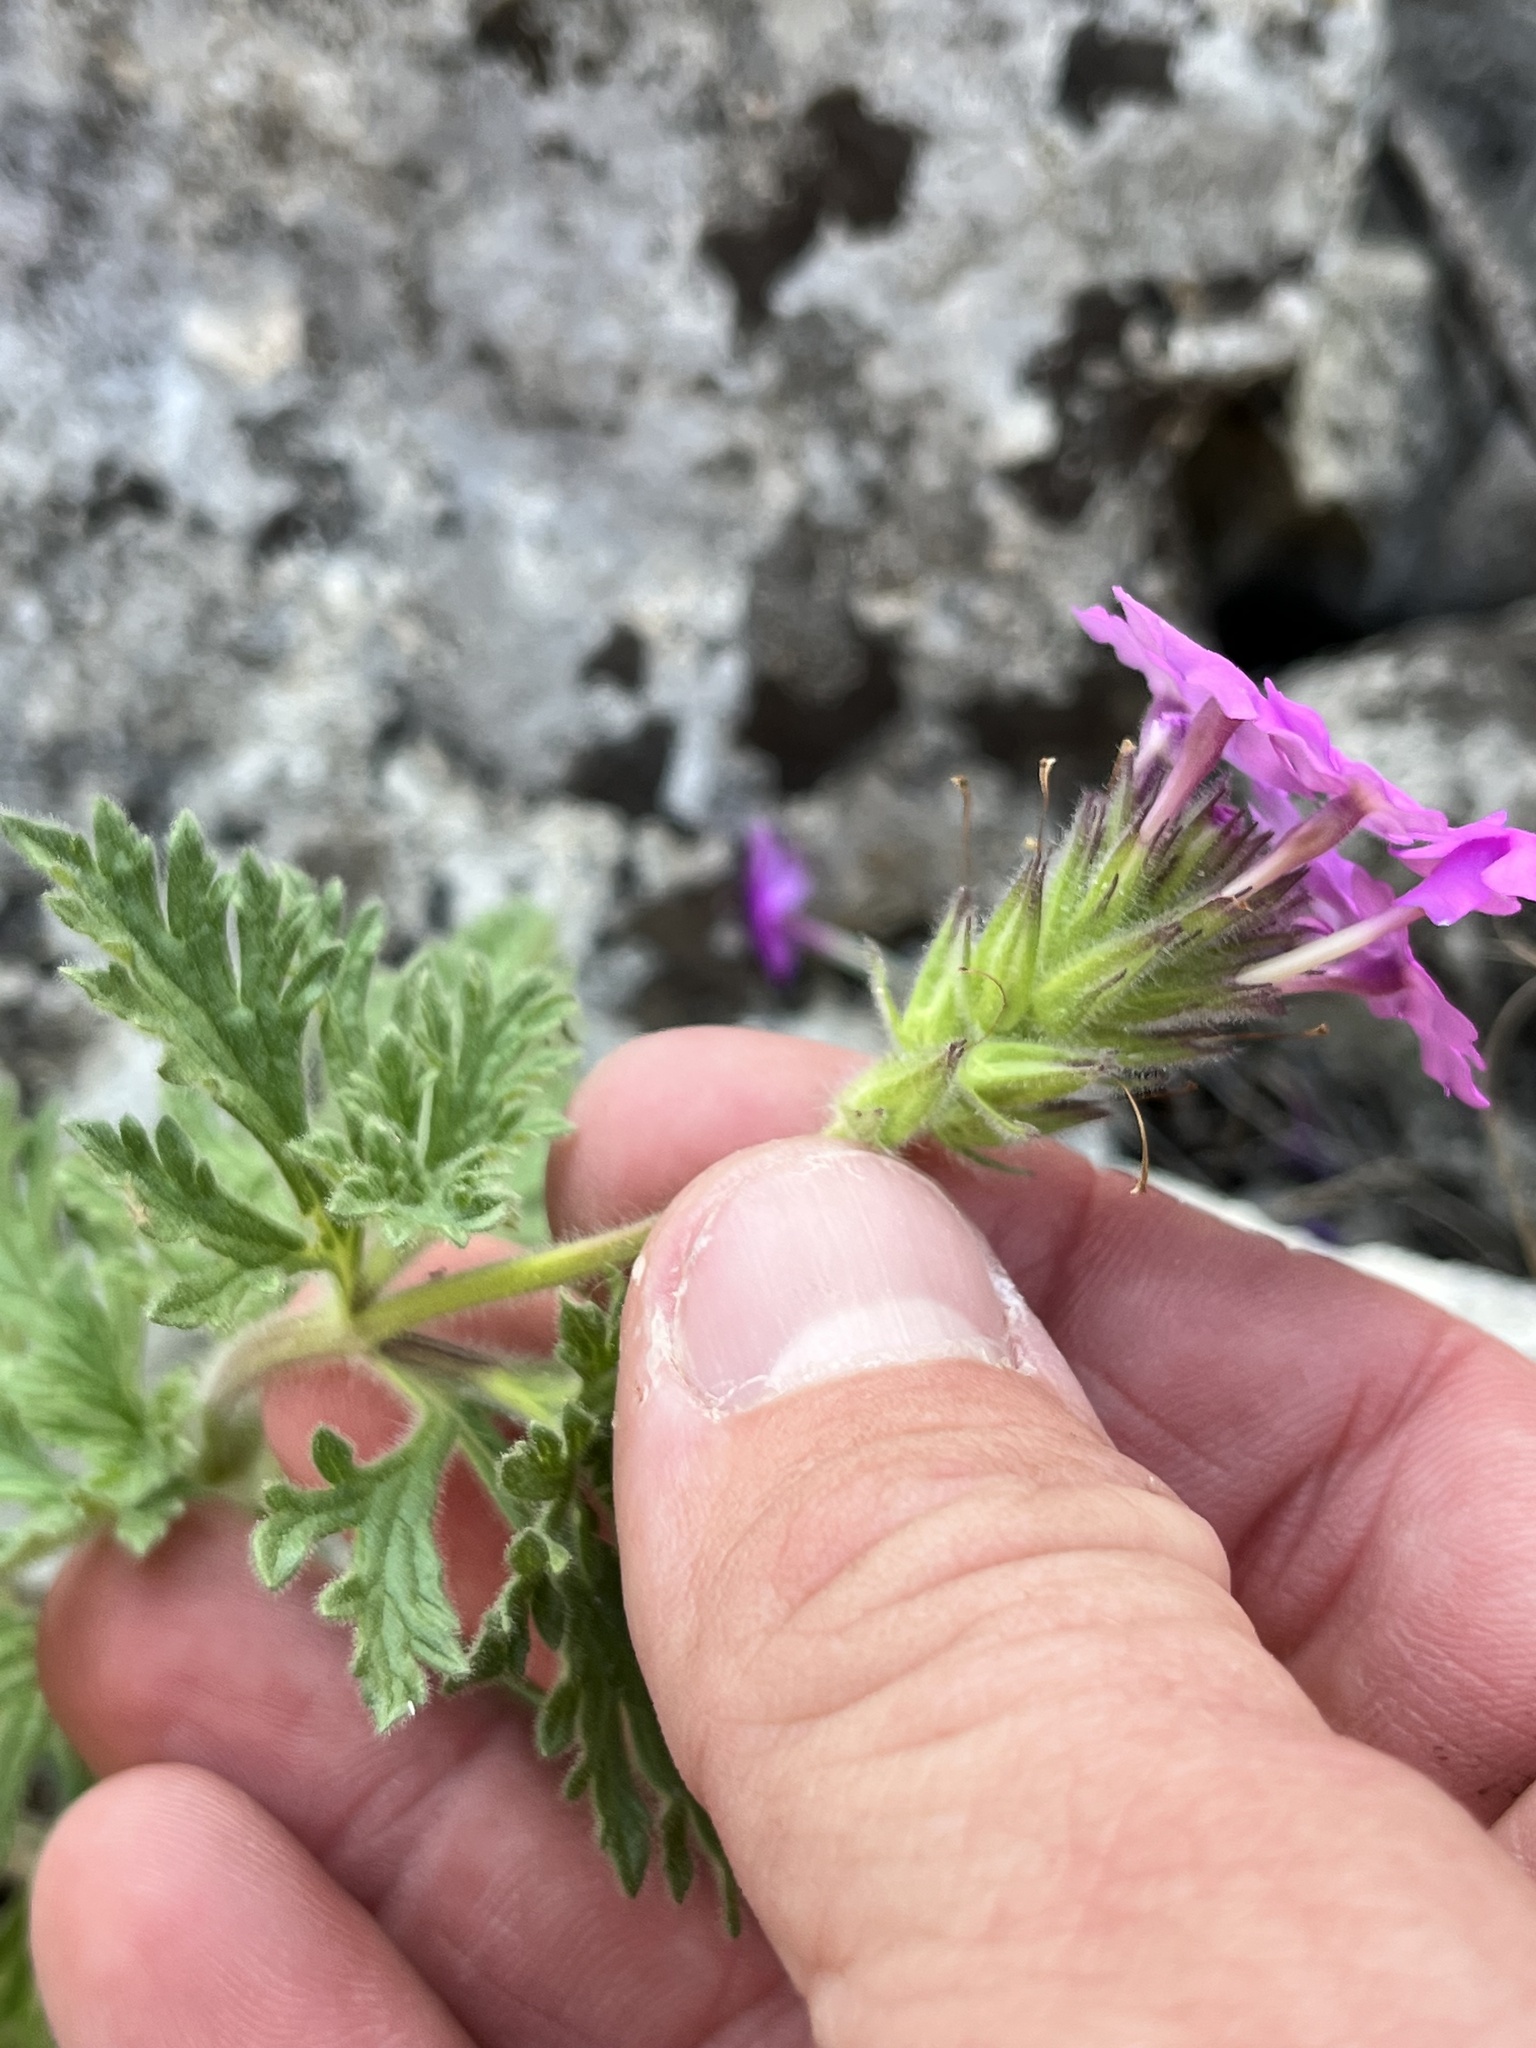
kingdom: Plantae
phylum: Tracheophyta
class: Magnoliopsida
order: Lamiales
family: Verbenaceae
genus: Verbena
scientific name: Verbena bipinnatifida
